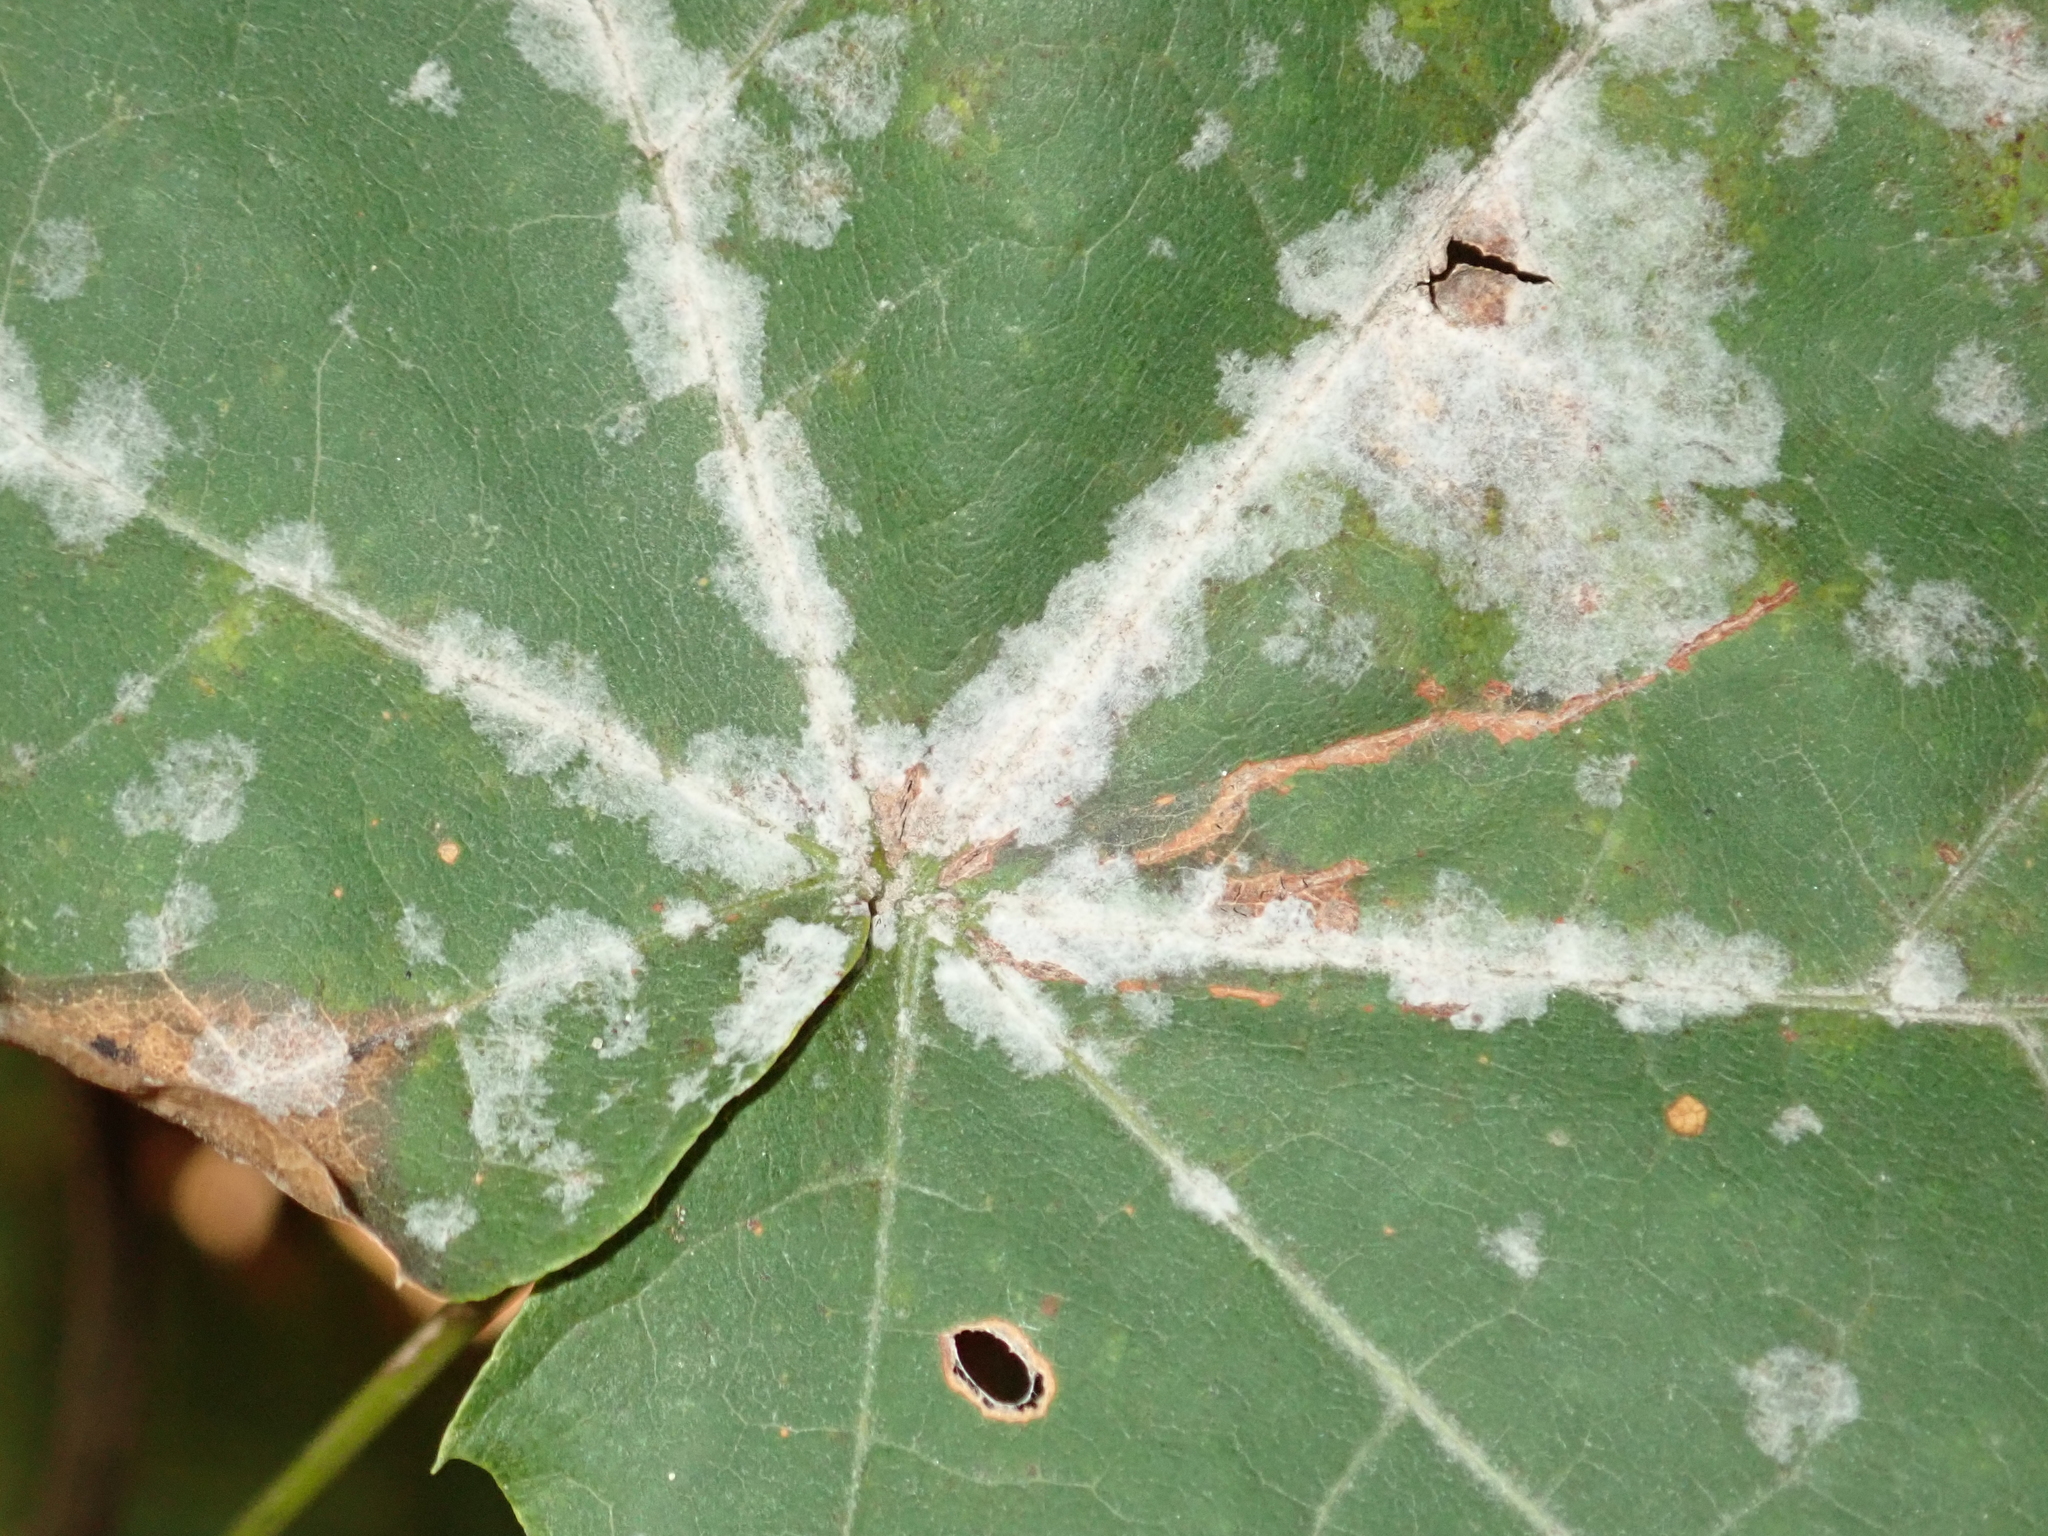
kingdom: Fungi
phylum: Ascomycota
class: Leotiomycetes
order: Helotiales
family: Erysiphaceae
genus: Sawadaea
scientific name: Sawadaea tulasnei
